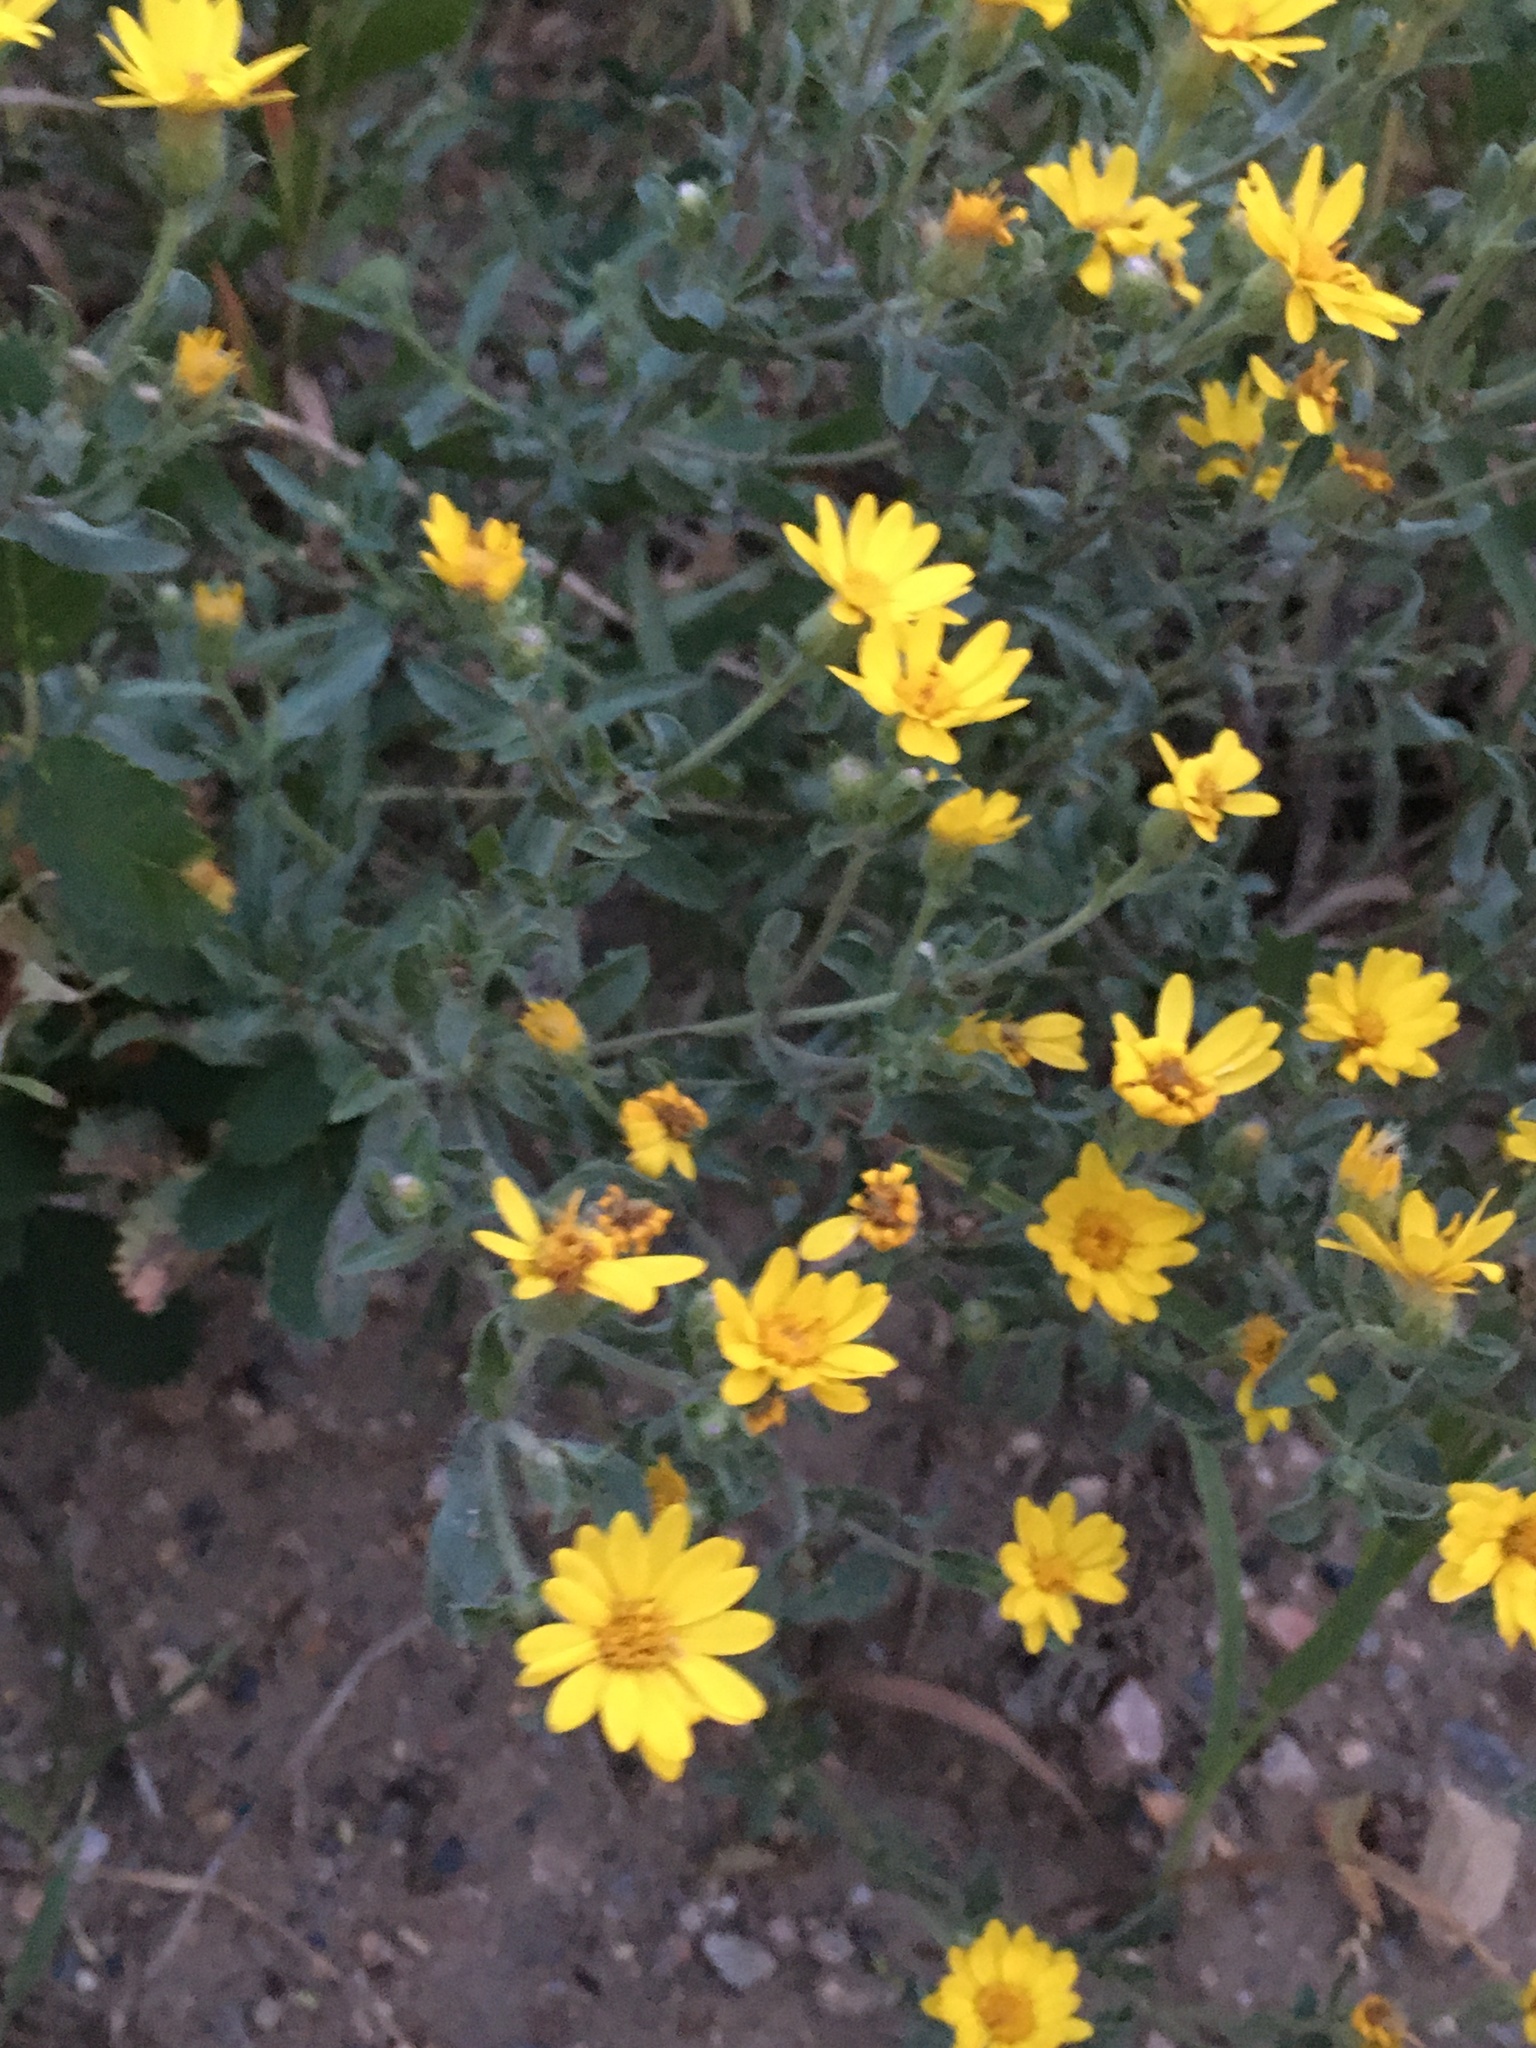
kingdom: Plantae
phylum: Tracheophyta
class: Magnoliopsida
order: Asterales
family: Asteraceae
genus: Heterotheca
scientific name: Heterotheca villosa
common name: Hairy false goldenaster
